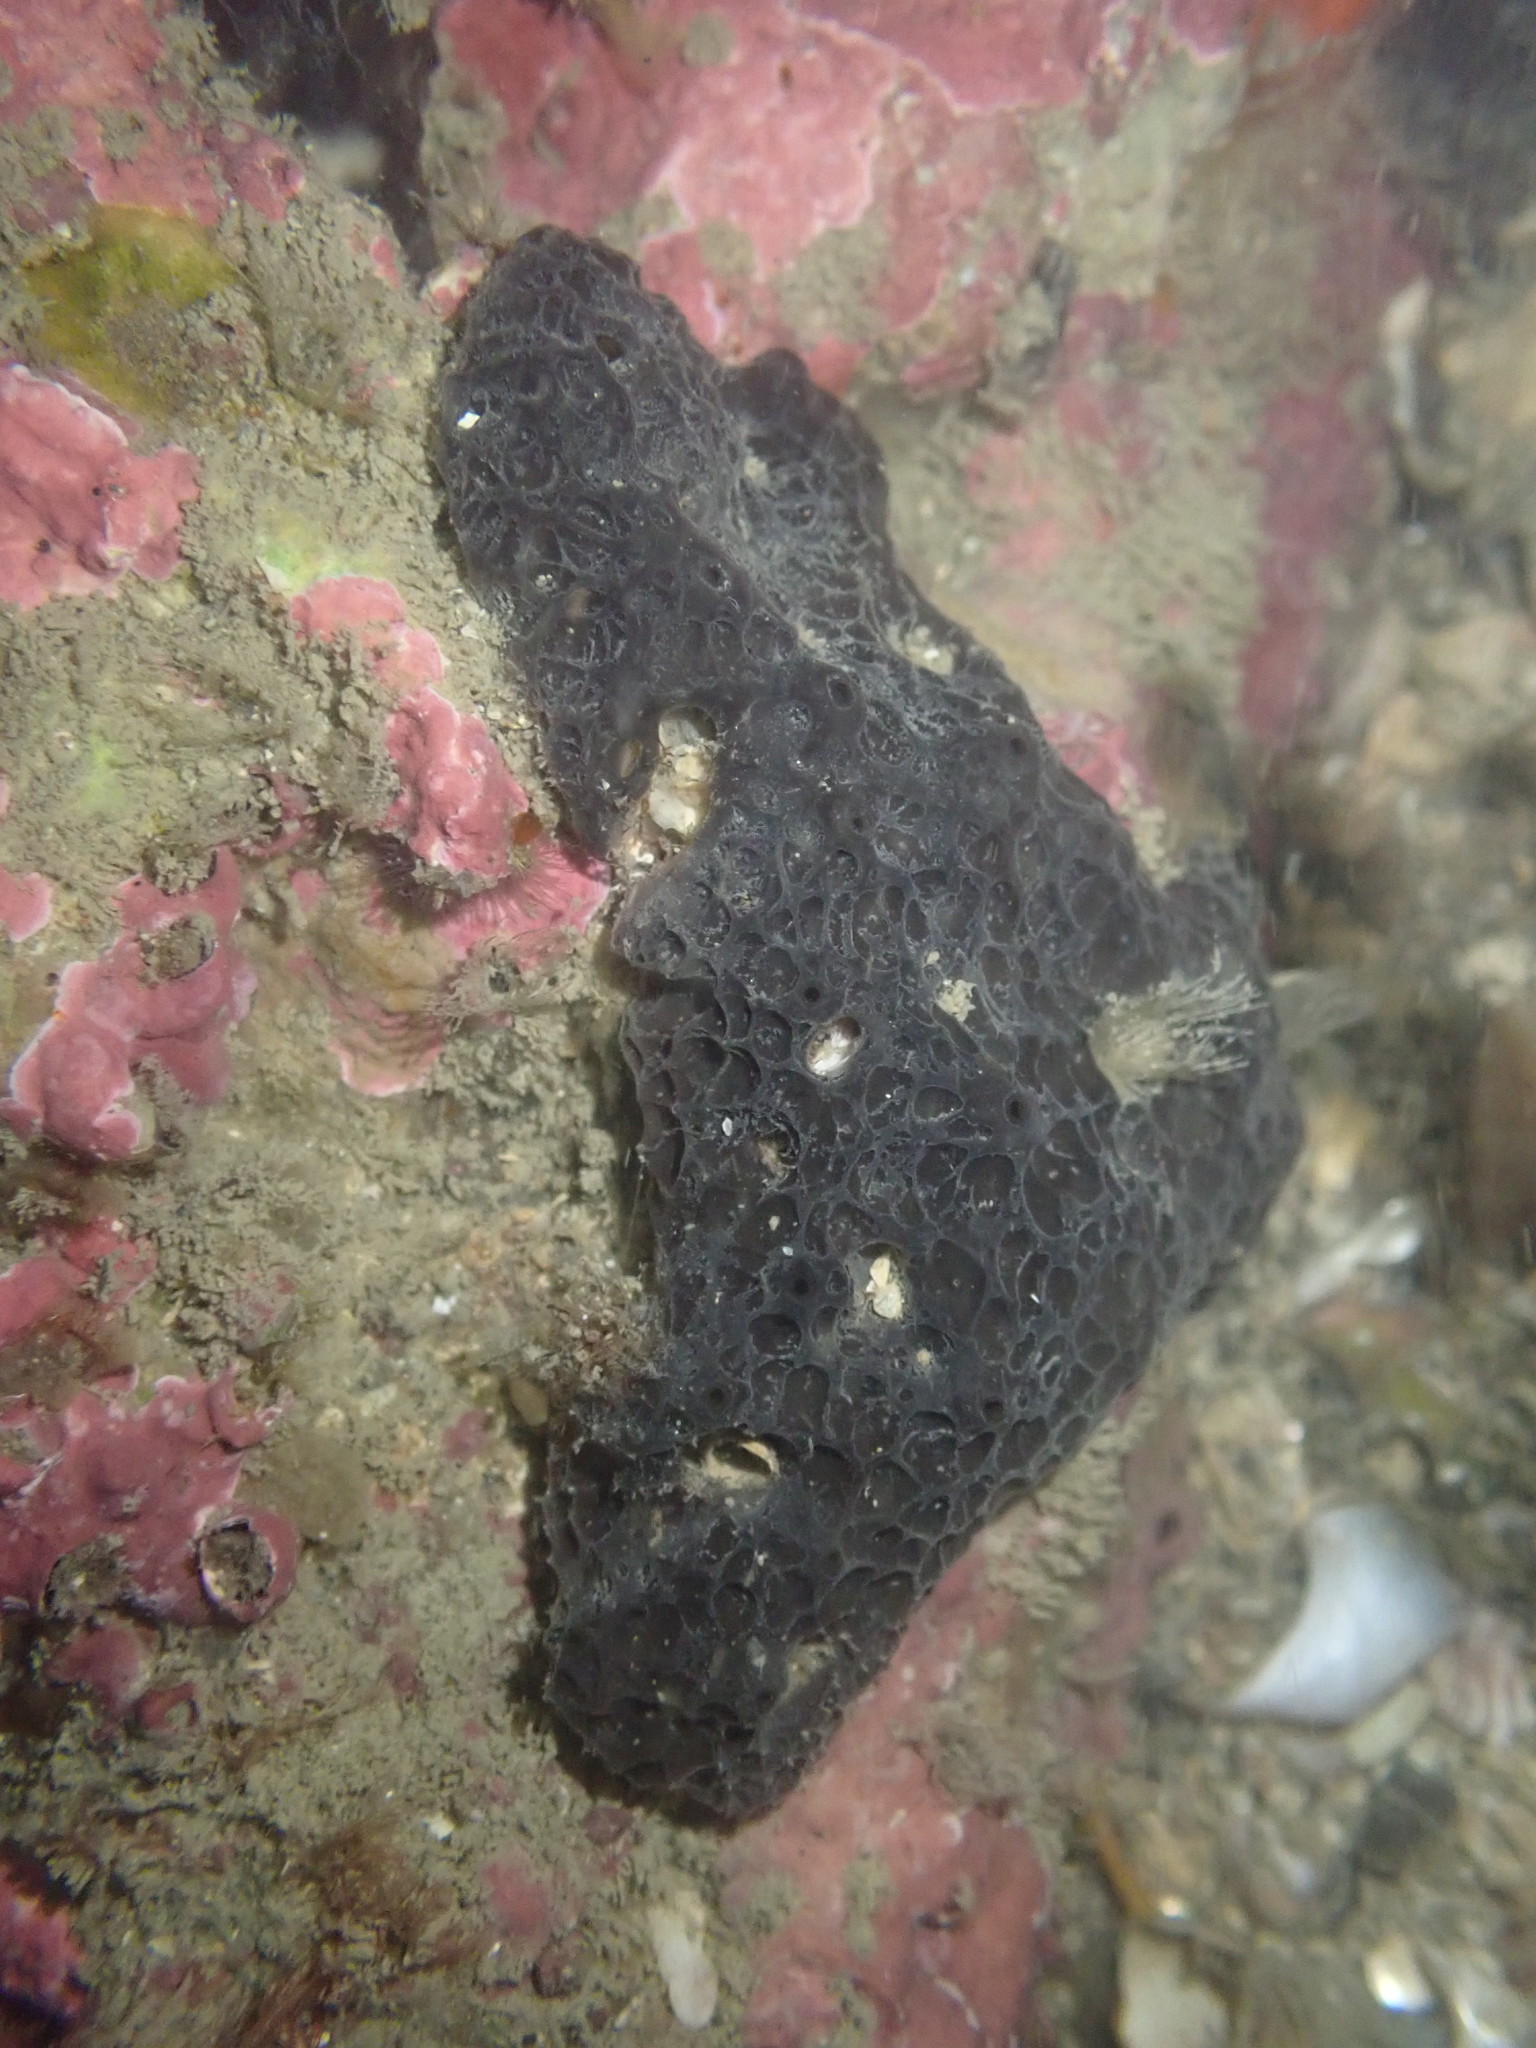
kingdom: Animalia
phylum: Porifera
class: Demospongiae
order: Dictyoceratida
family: Irciniidae
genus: Ircinia
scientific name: Ircinia novaezealandiae
